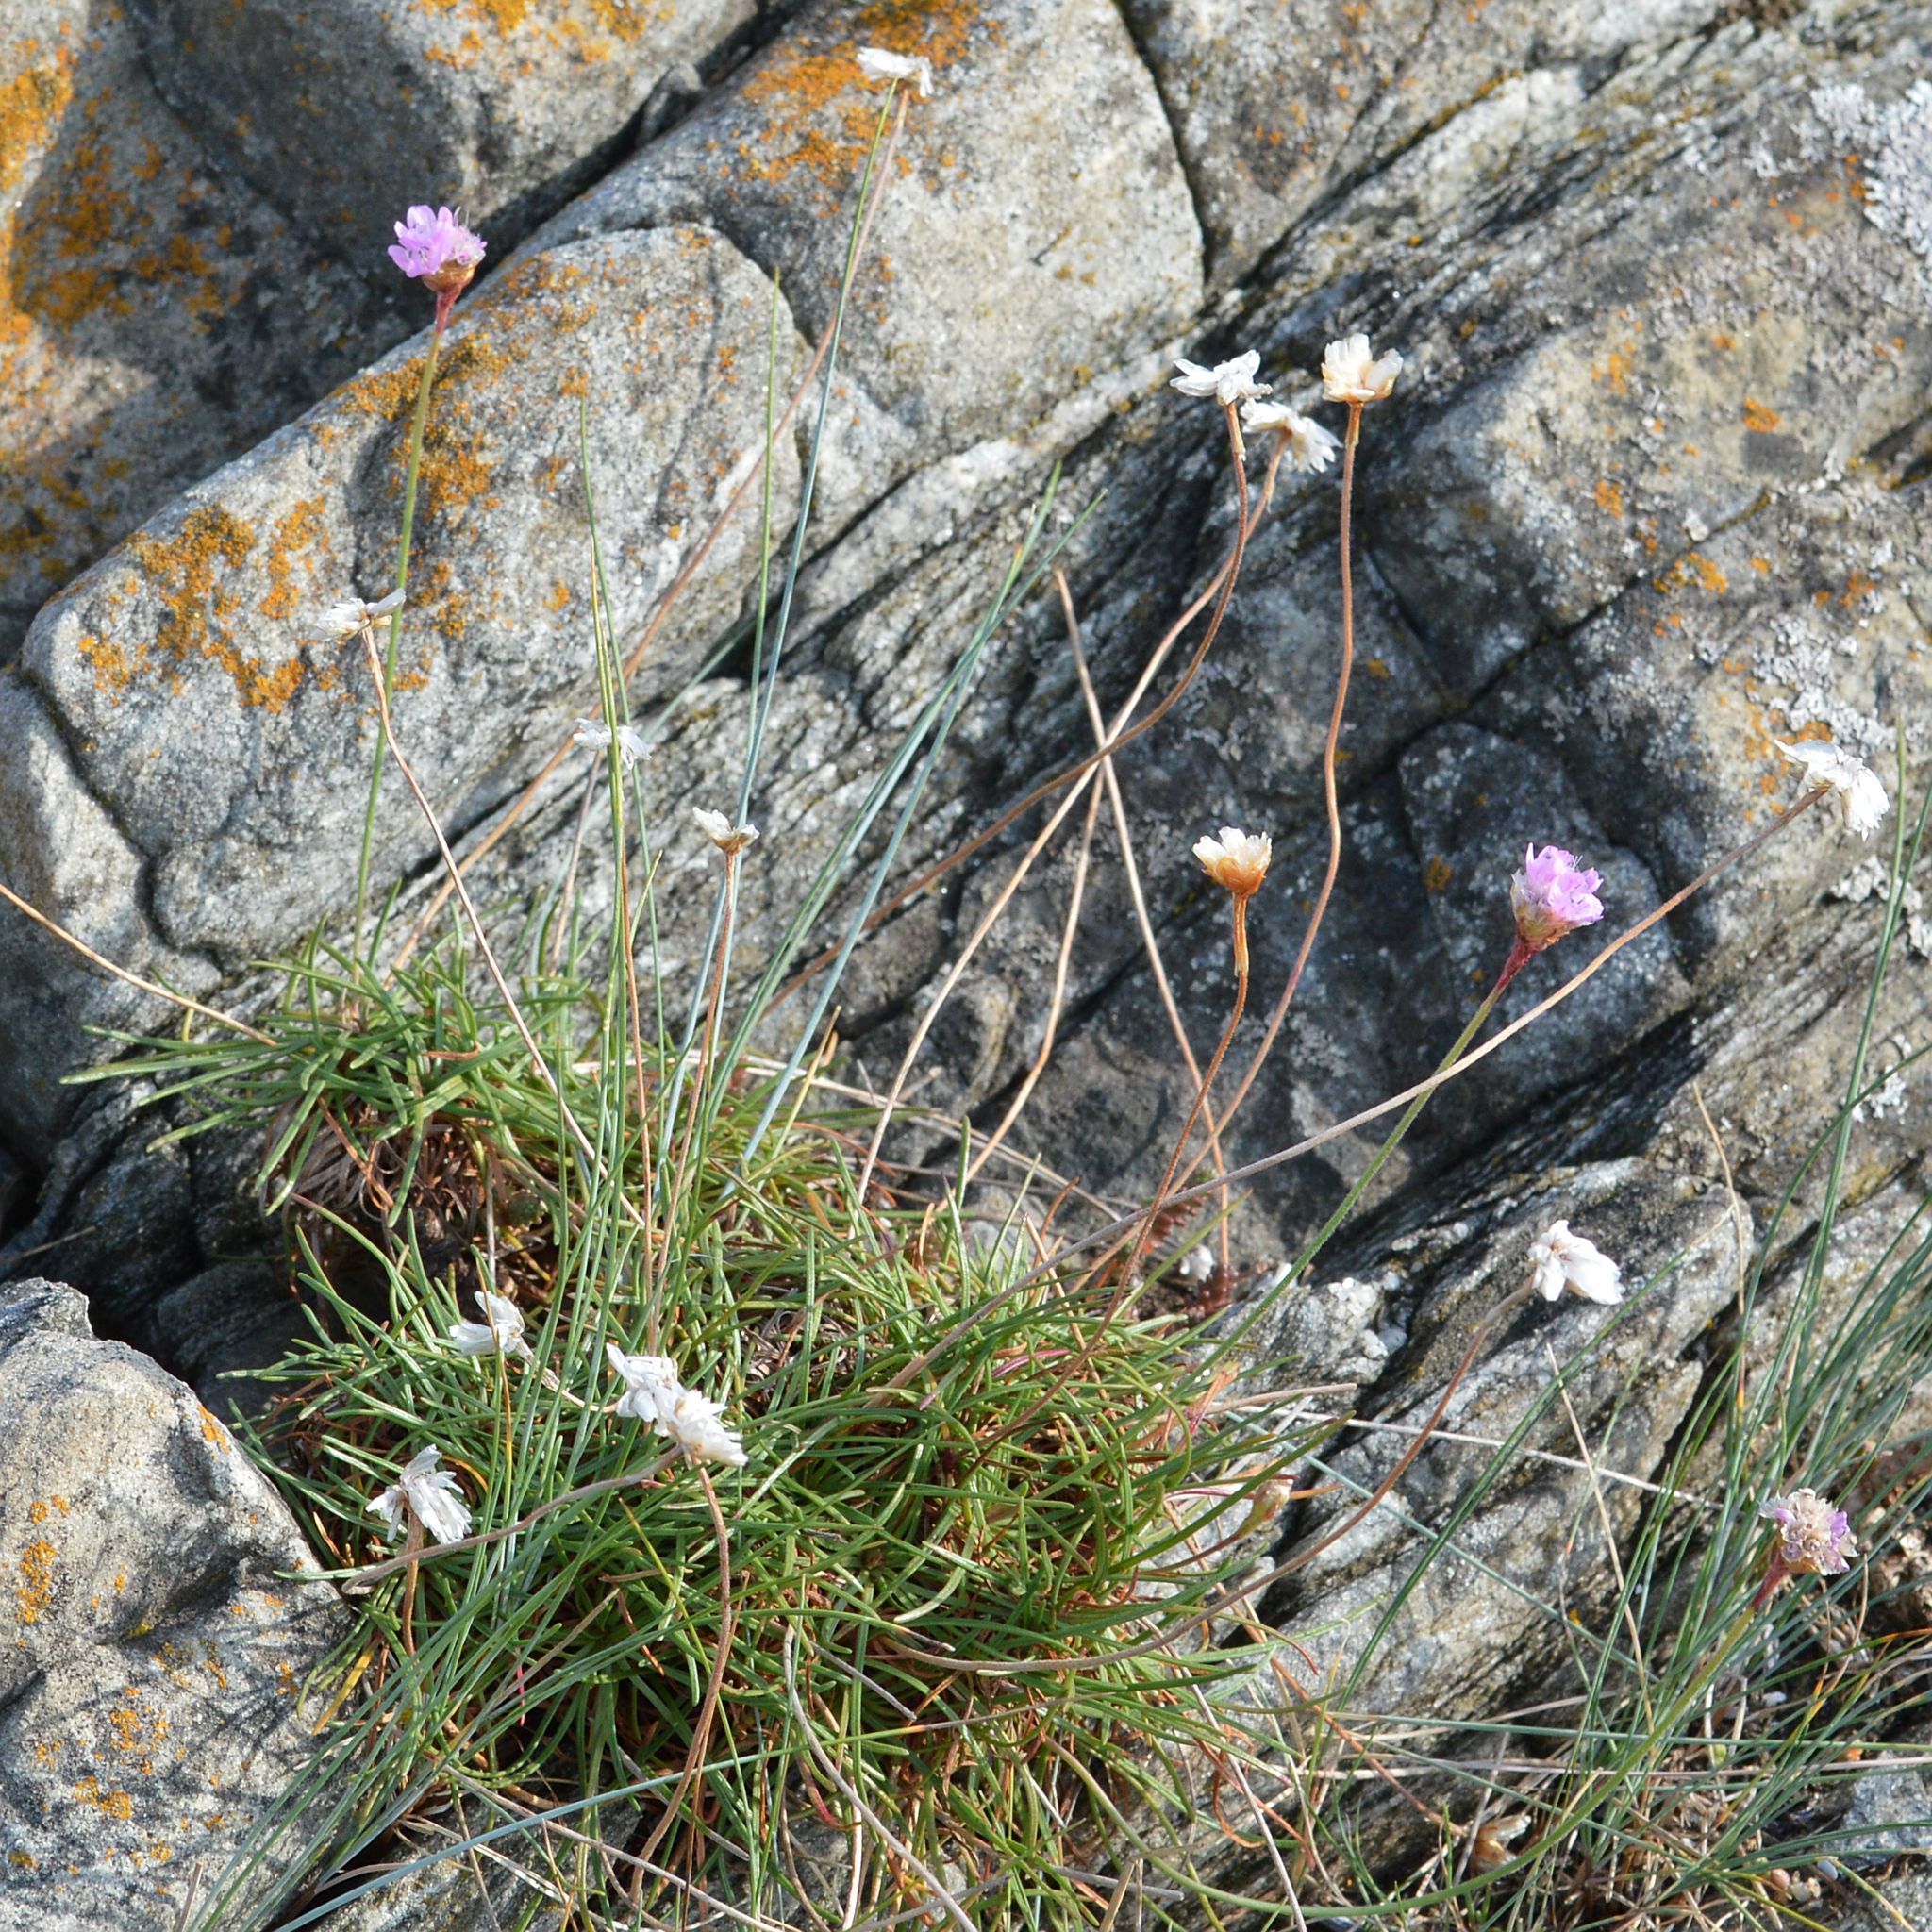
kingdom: Plantae
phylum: Tracheophyta
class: Magnoliopsida
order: Caryophyllales
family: Plumbaginaceae
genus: Armeria
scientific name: Armeria maritima
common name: Thrift
